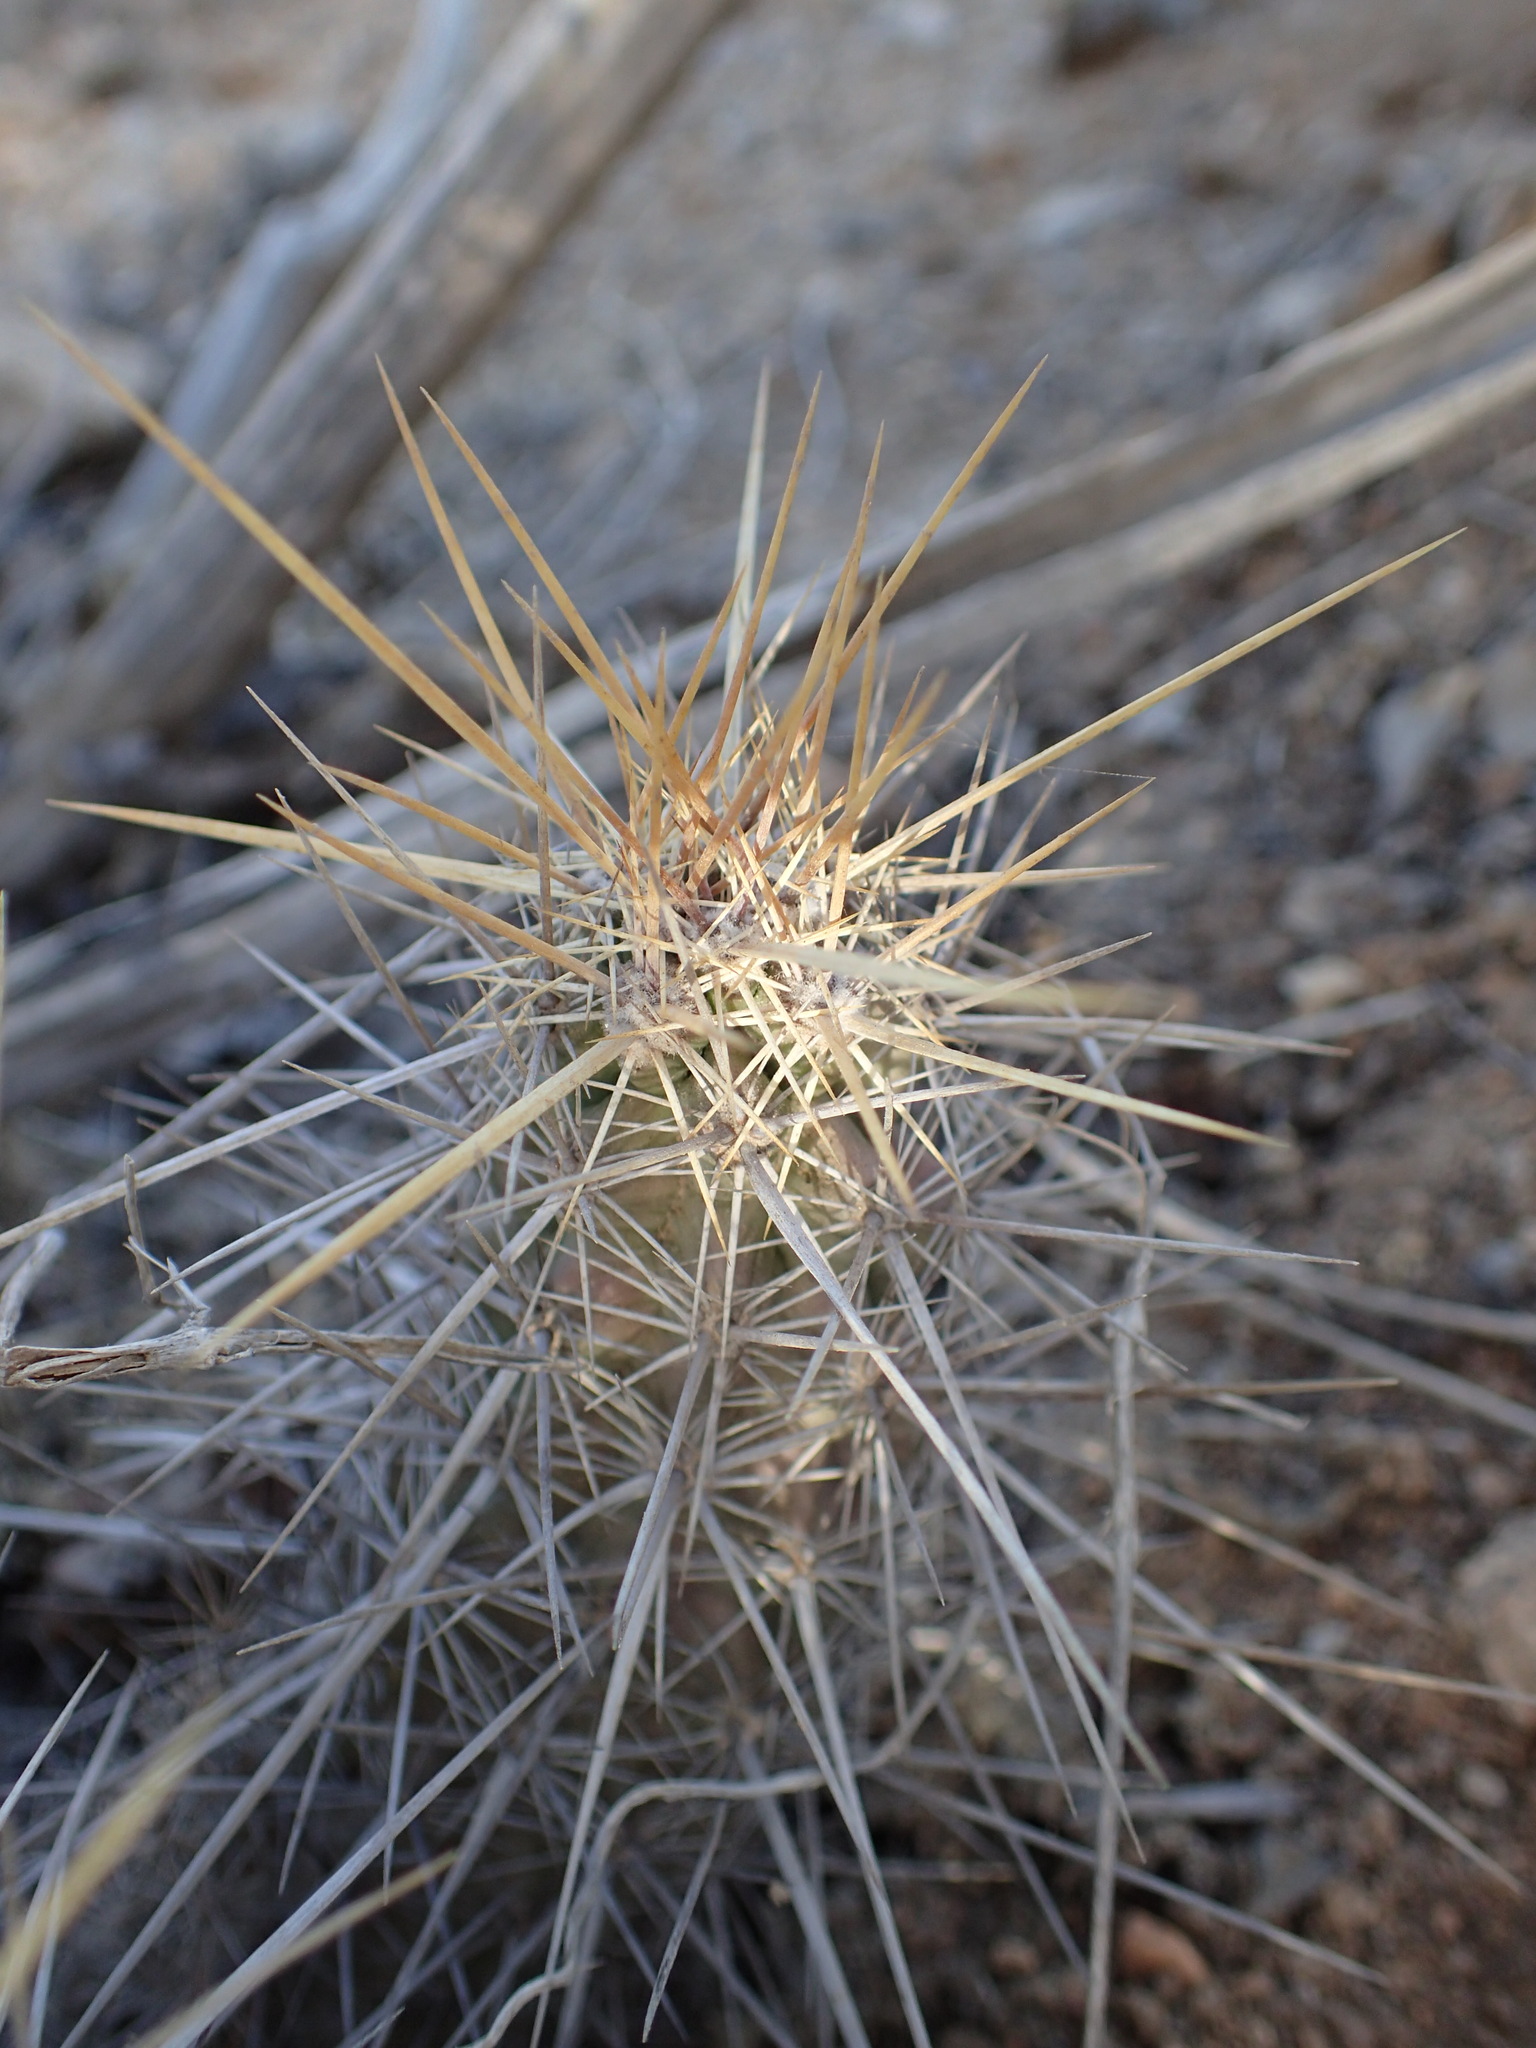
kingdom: Plantae
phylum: Tracheophyta
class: Magnoliopsida
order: Caryophyllales
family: Cactaceae
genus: Echinocereus
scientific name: Echinocereus brandegeei
